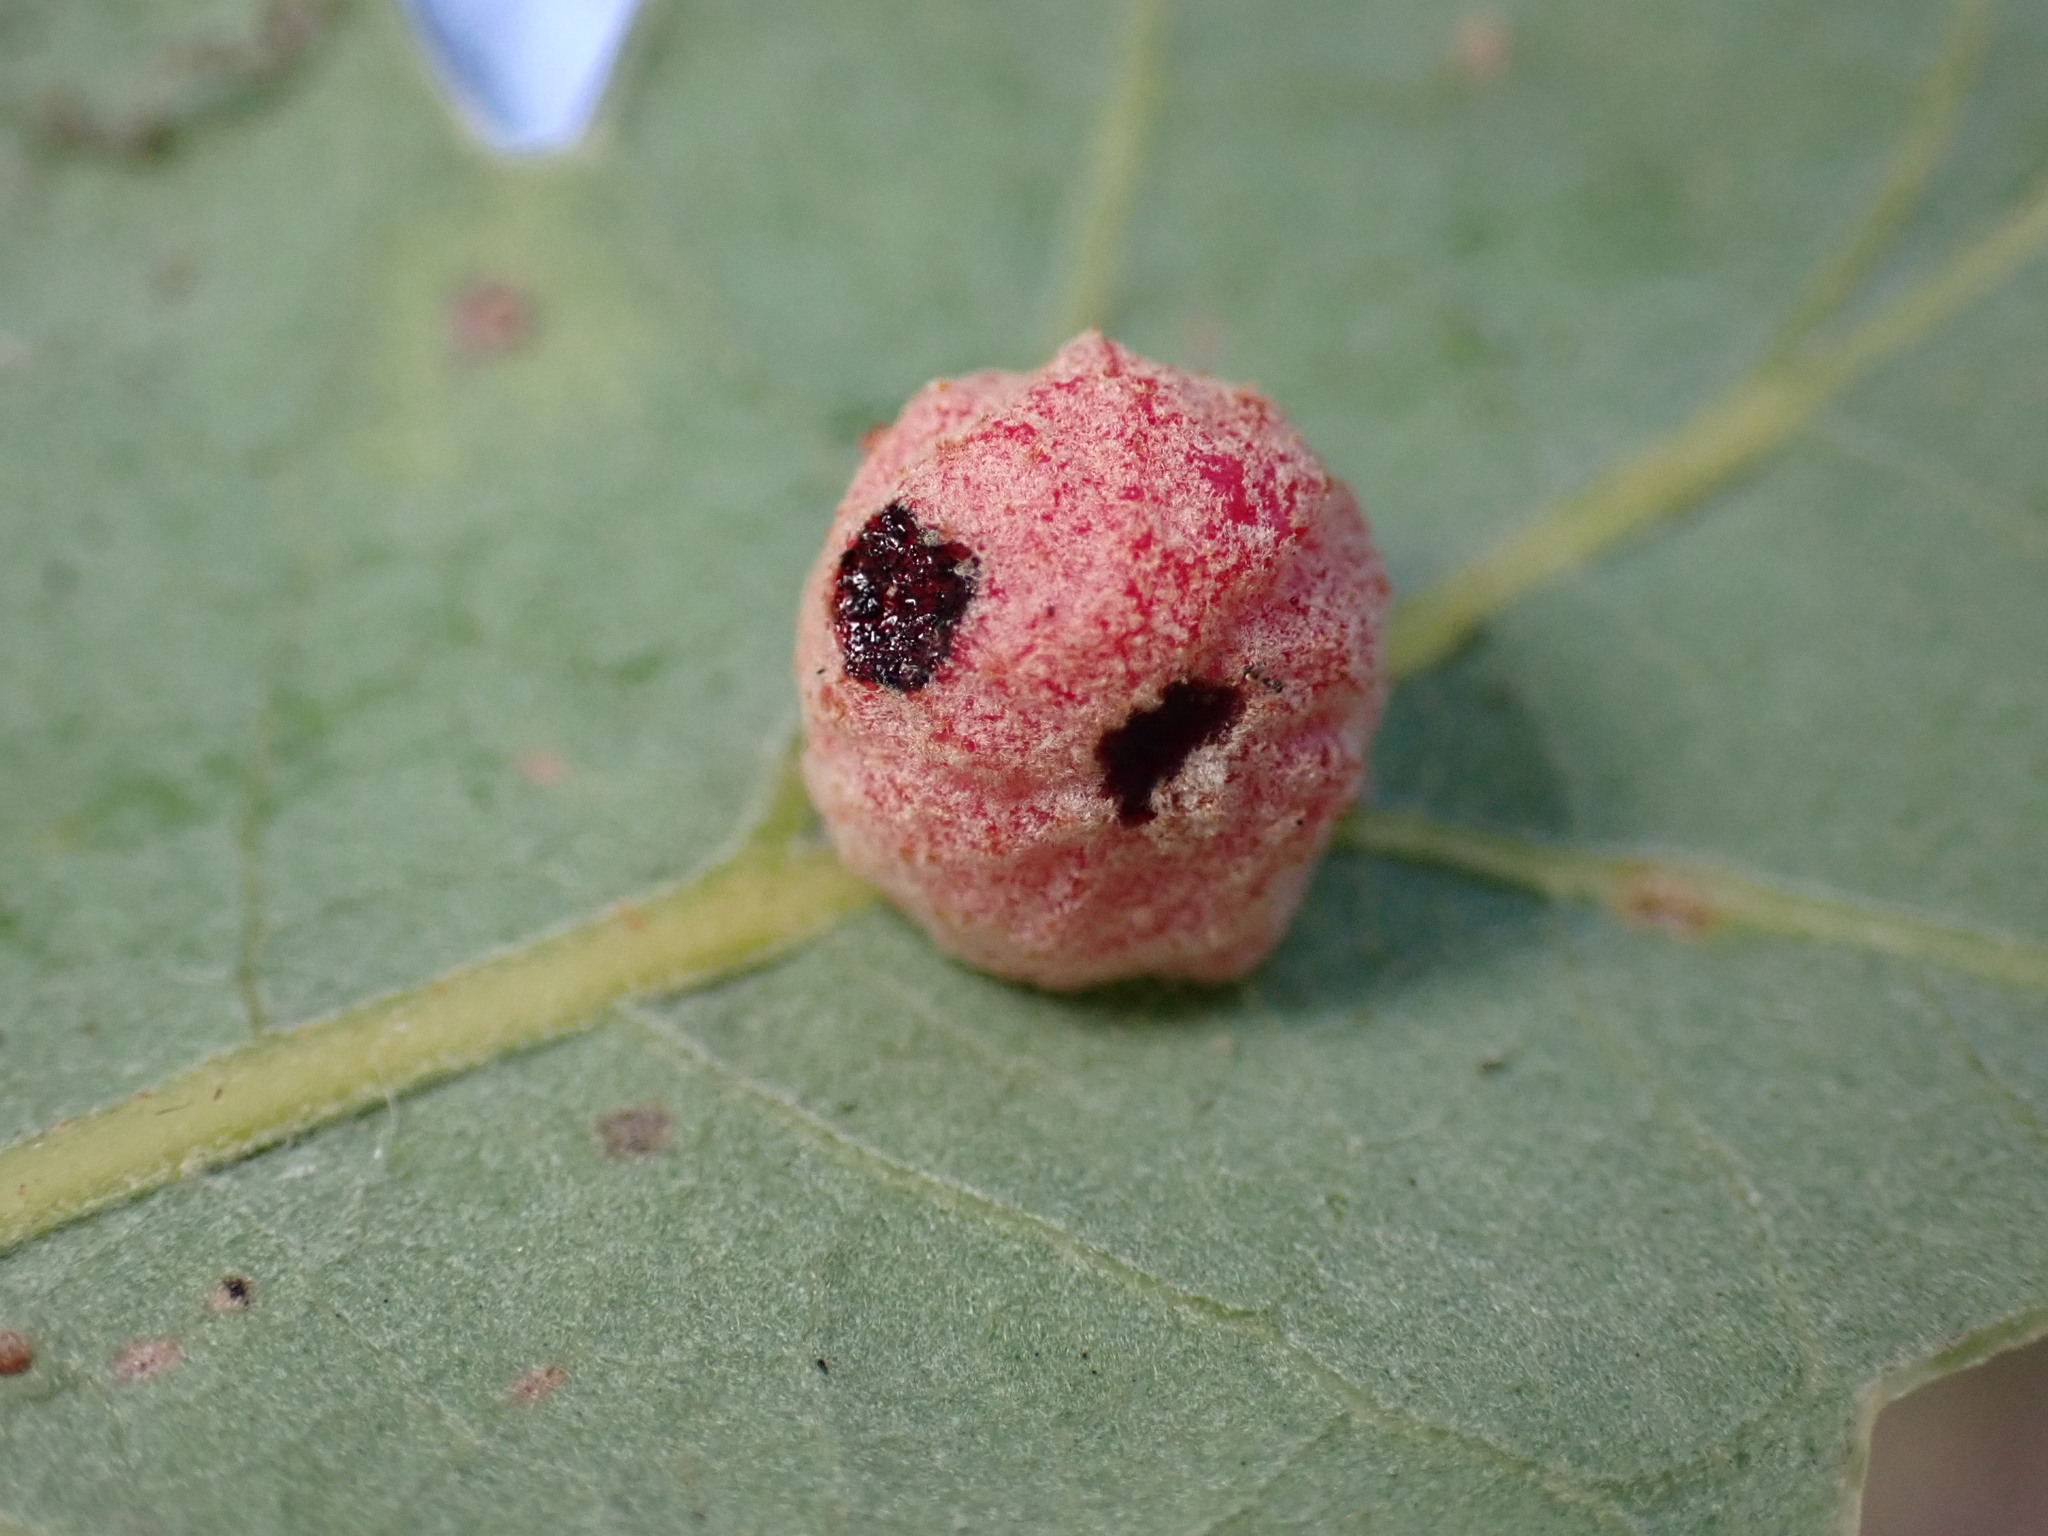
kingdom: Animalia
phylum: Arthropoda
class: Insecta
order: Hymenoptera
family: Cynipidae
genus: Cynips
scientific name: Cynips conspicua
